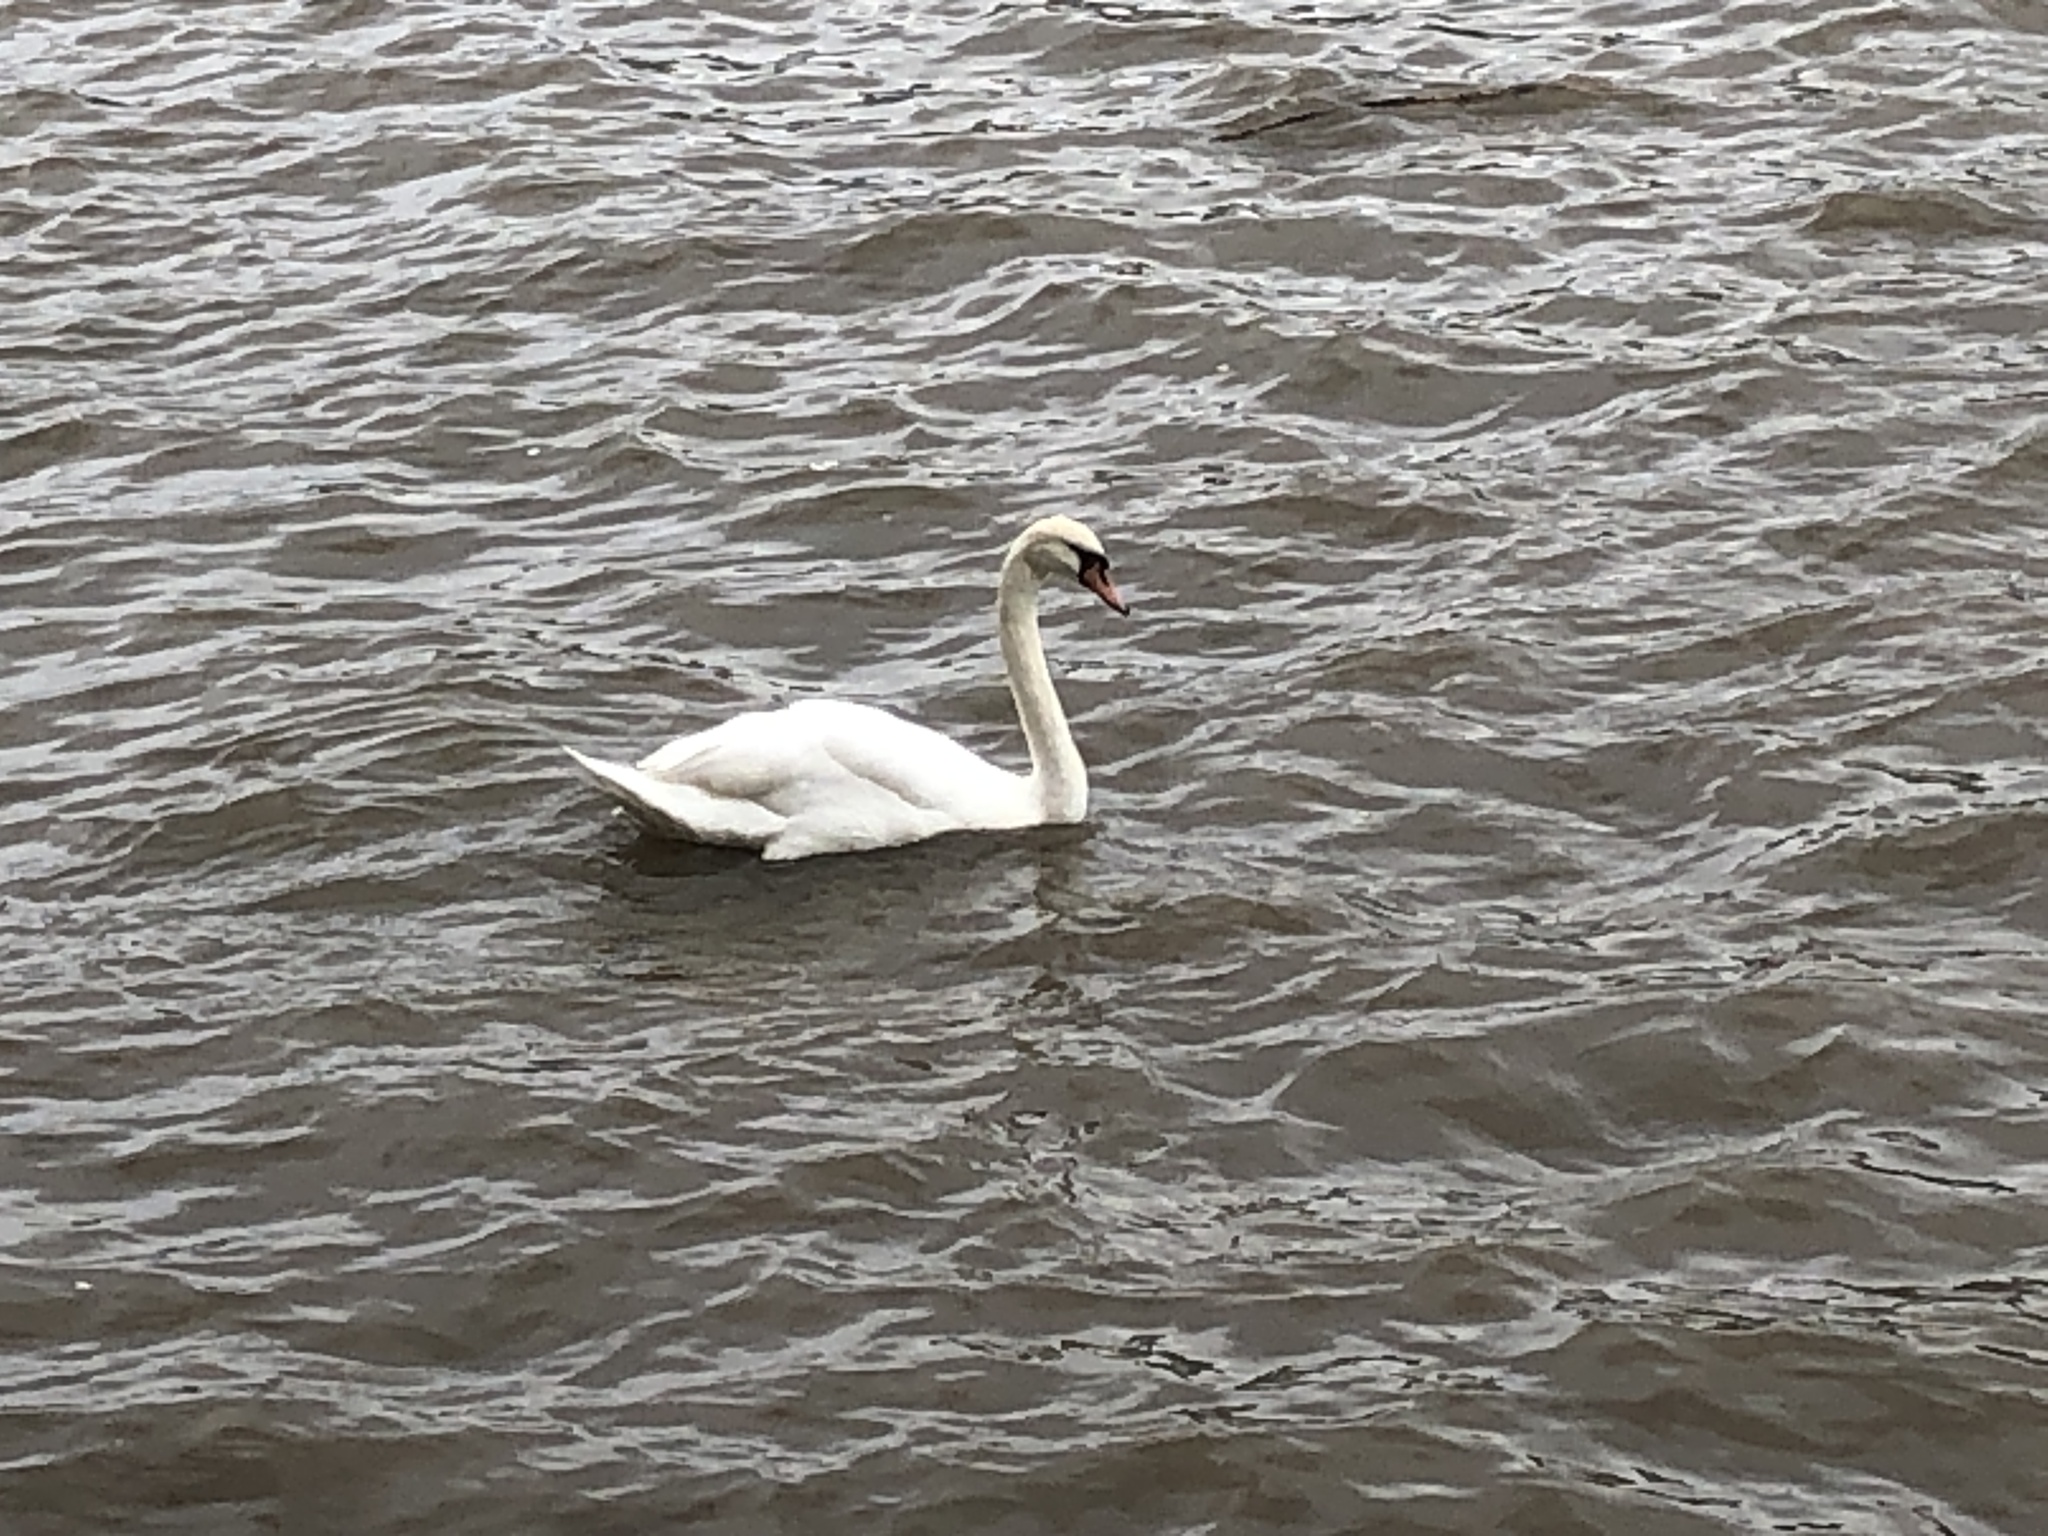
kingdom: Animalia
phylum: Chordata
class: Aves
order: Anseriformes
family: Anatidae
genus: Cygnus
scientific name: Cygnus olor
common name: Mute swan
